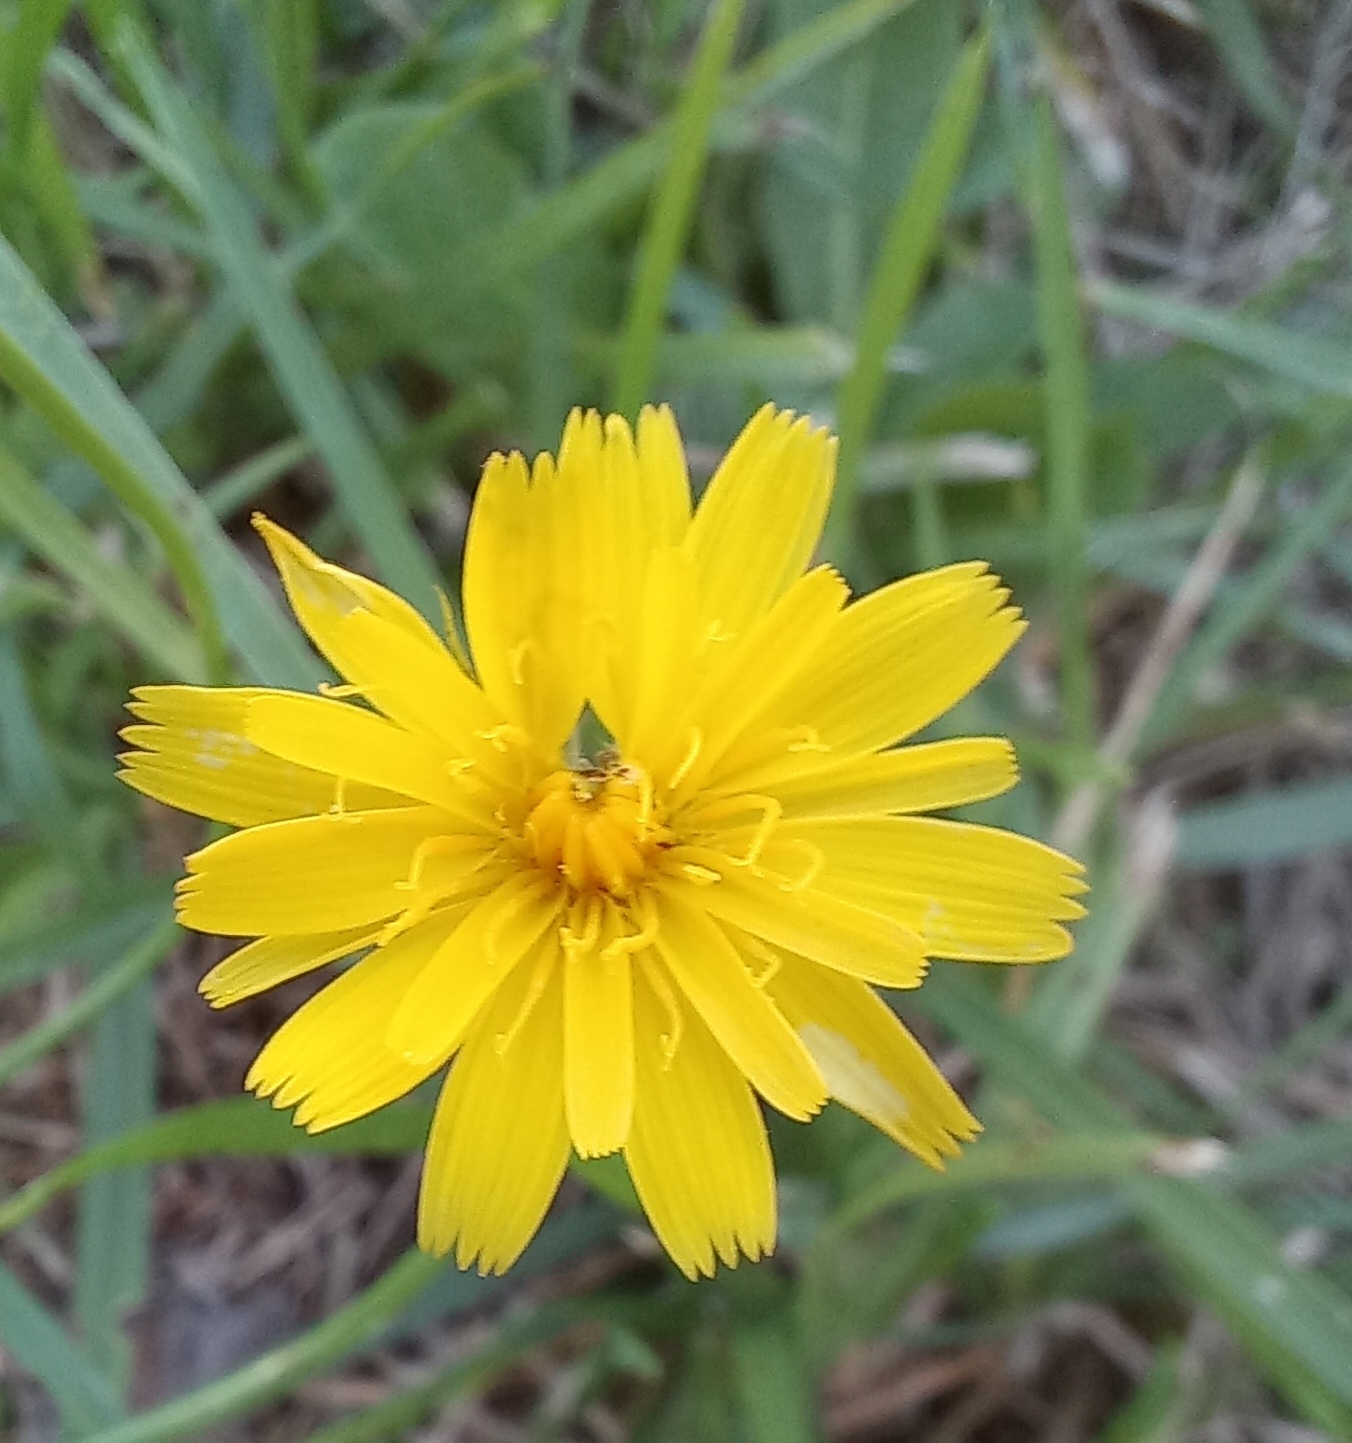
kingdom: Plantae
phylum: Tracheophyta
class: Magnoliopsida
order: Asterales
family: Asteraceae
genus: Hypochaeris
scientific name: Hypochaeris radicata
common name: Flatweed
